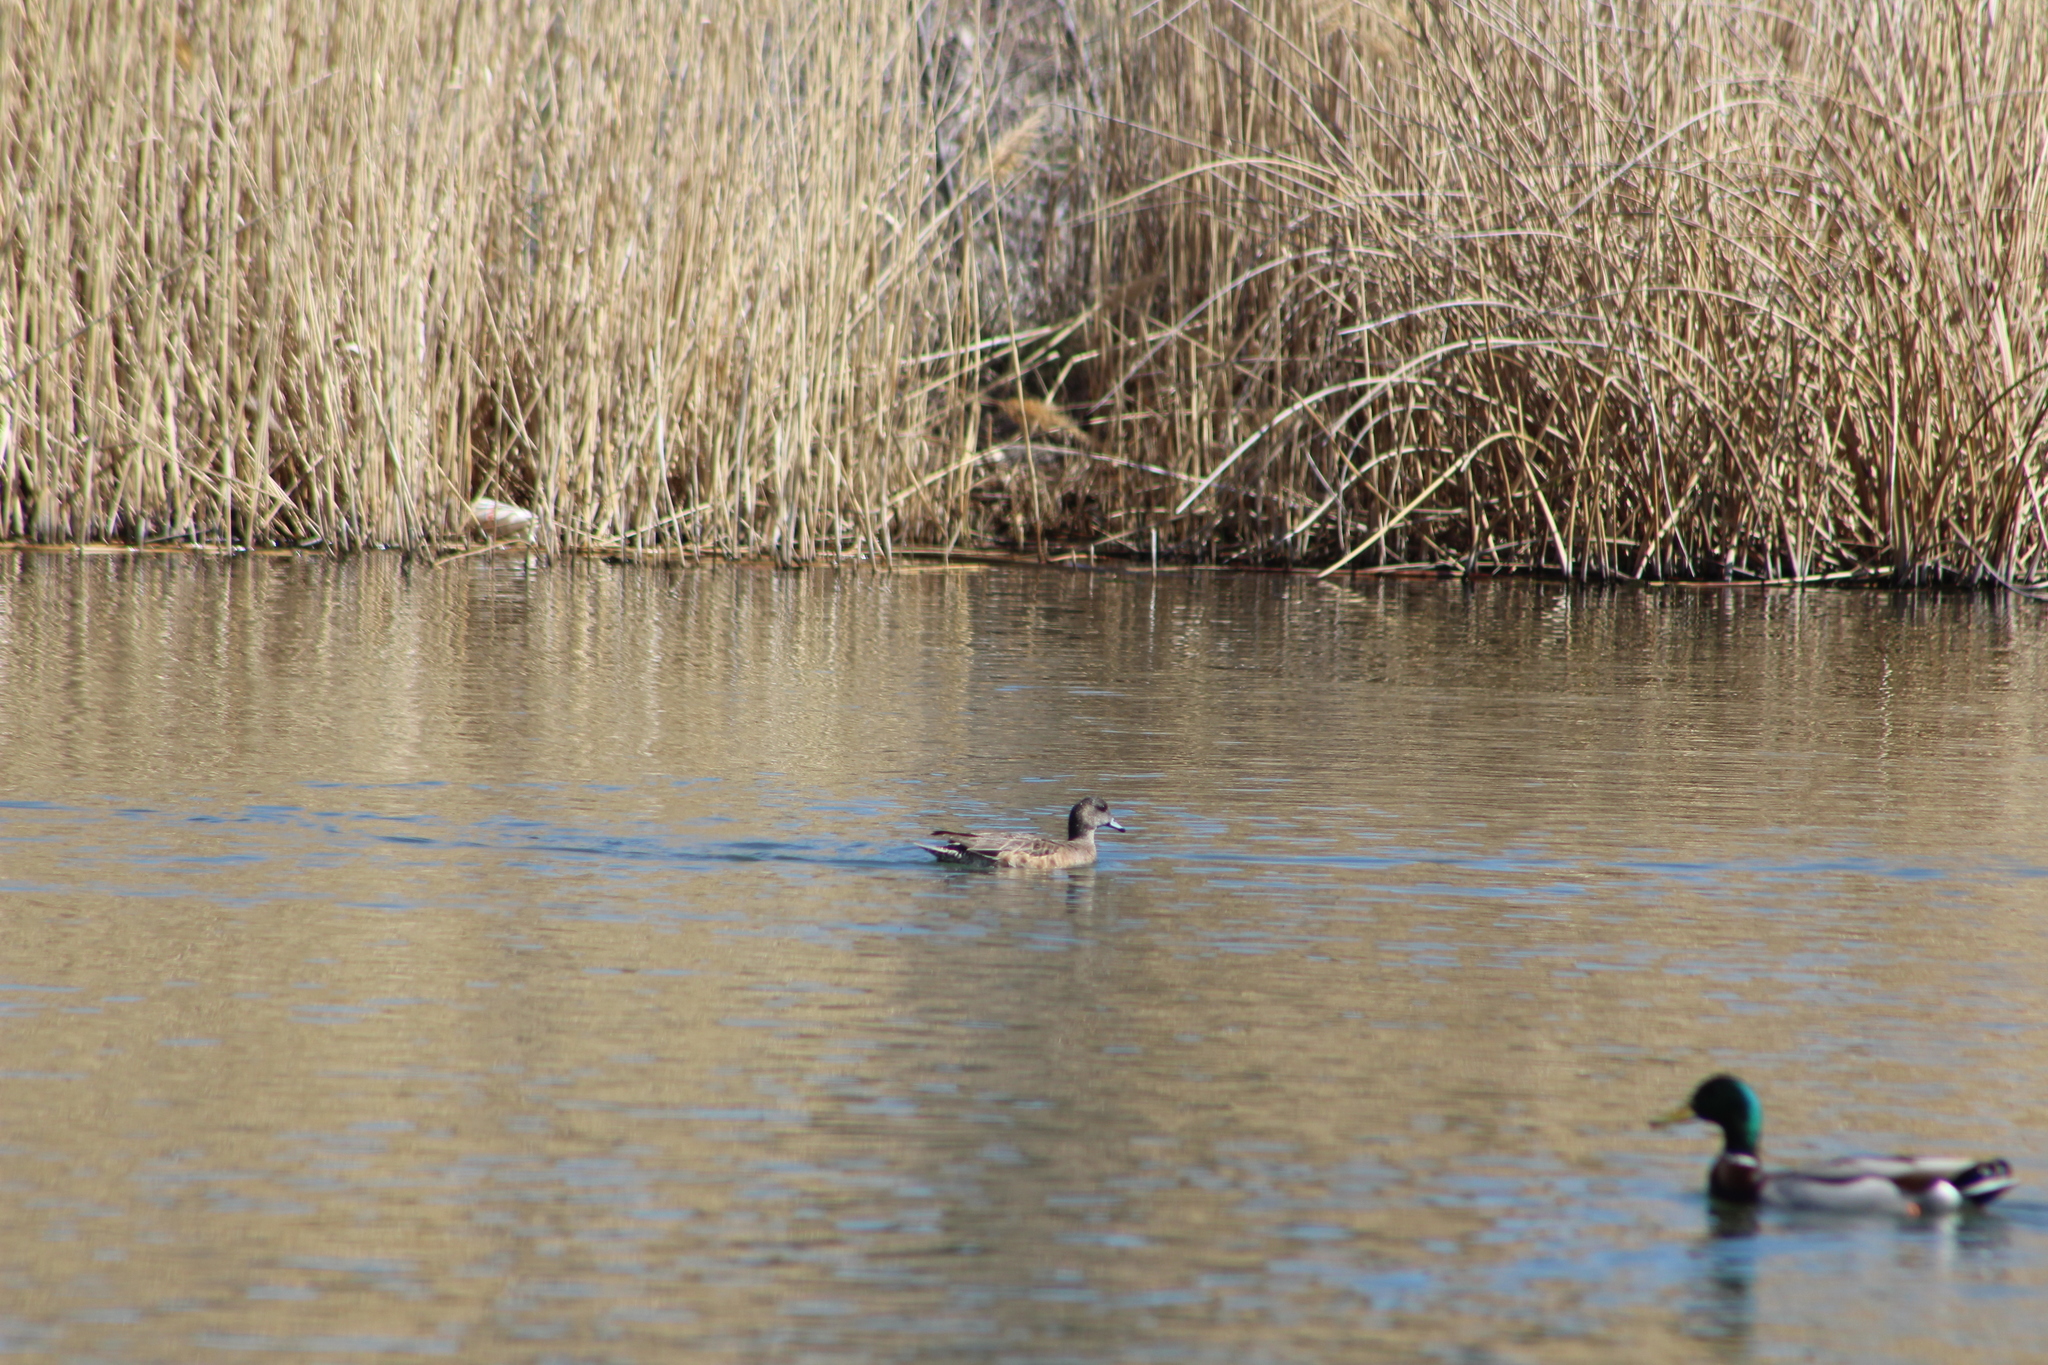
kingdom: Animalia
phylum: Chordata
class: Aves
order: Anseriformes
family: Anatidae
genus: Mareca
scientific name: Mareca strepera
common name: Gadwall
